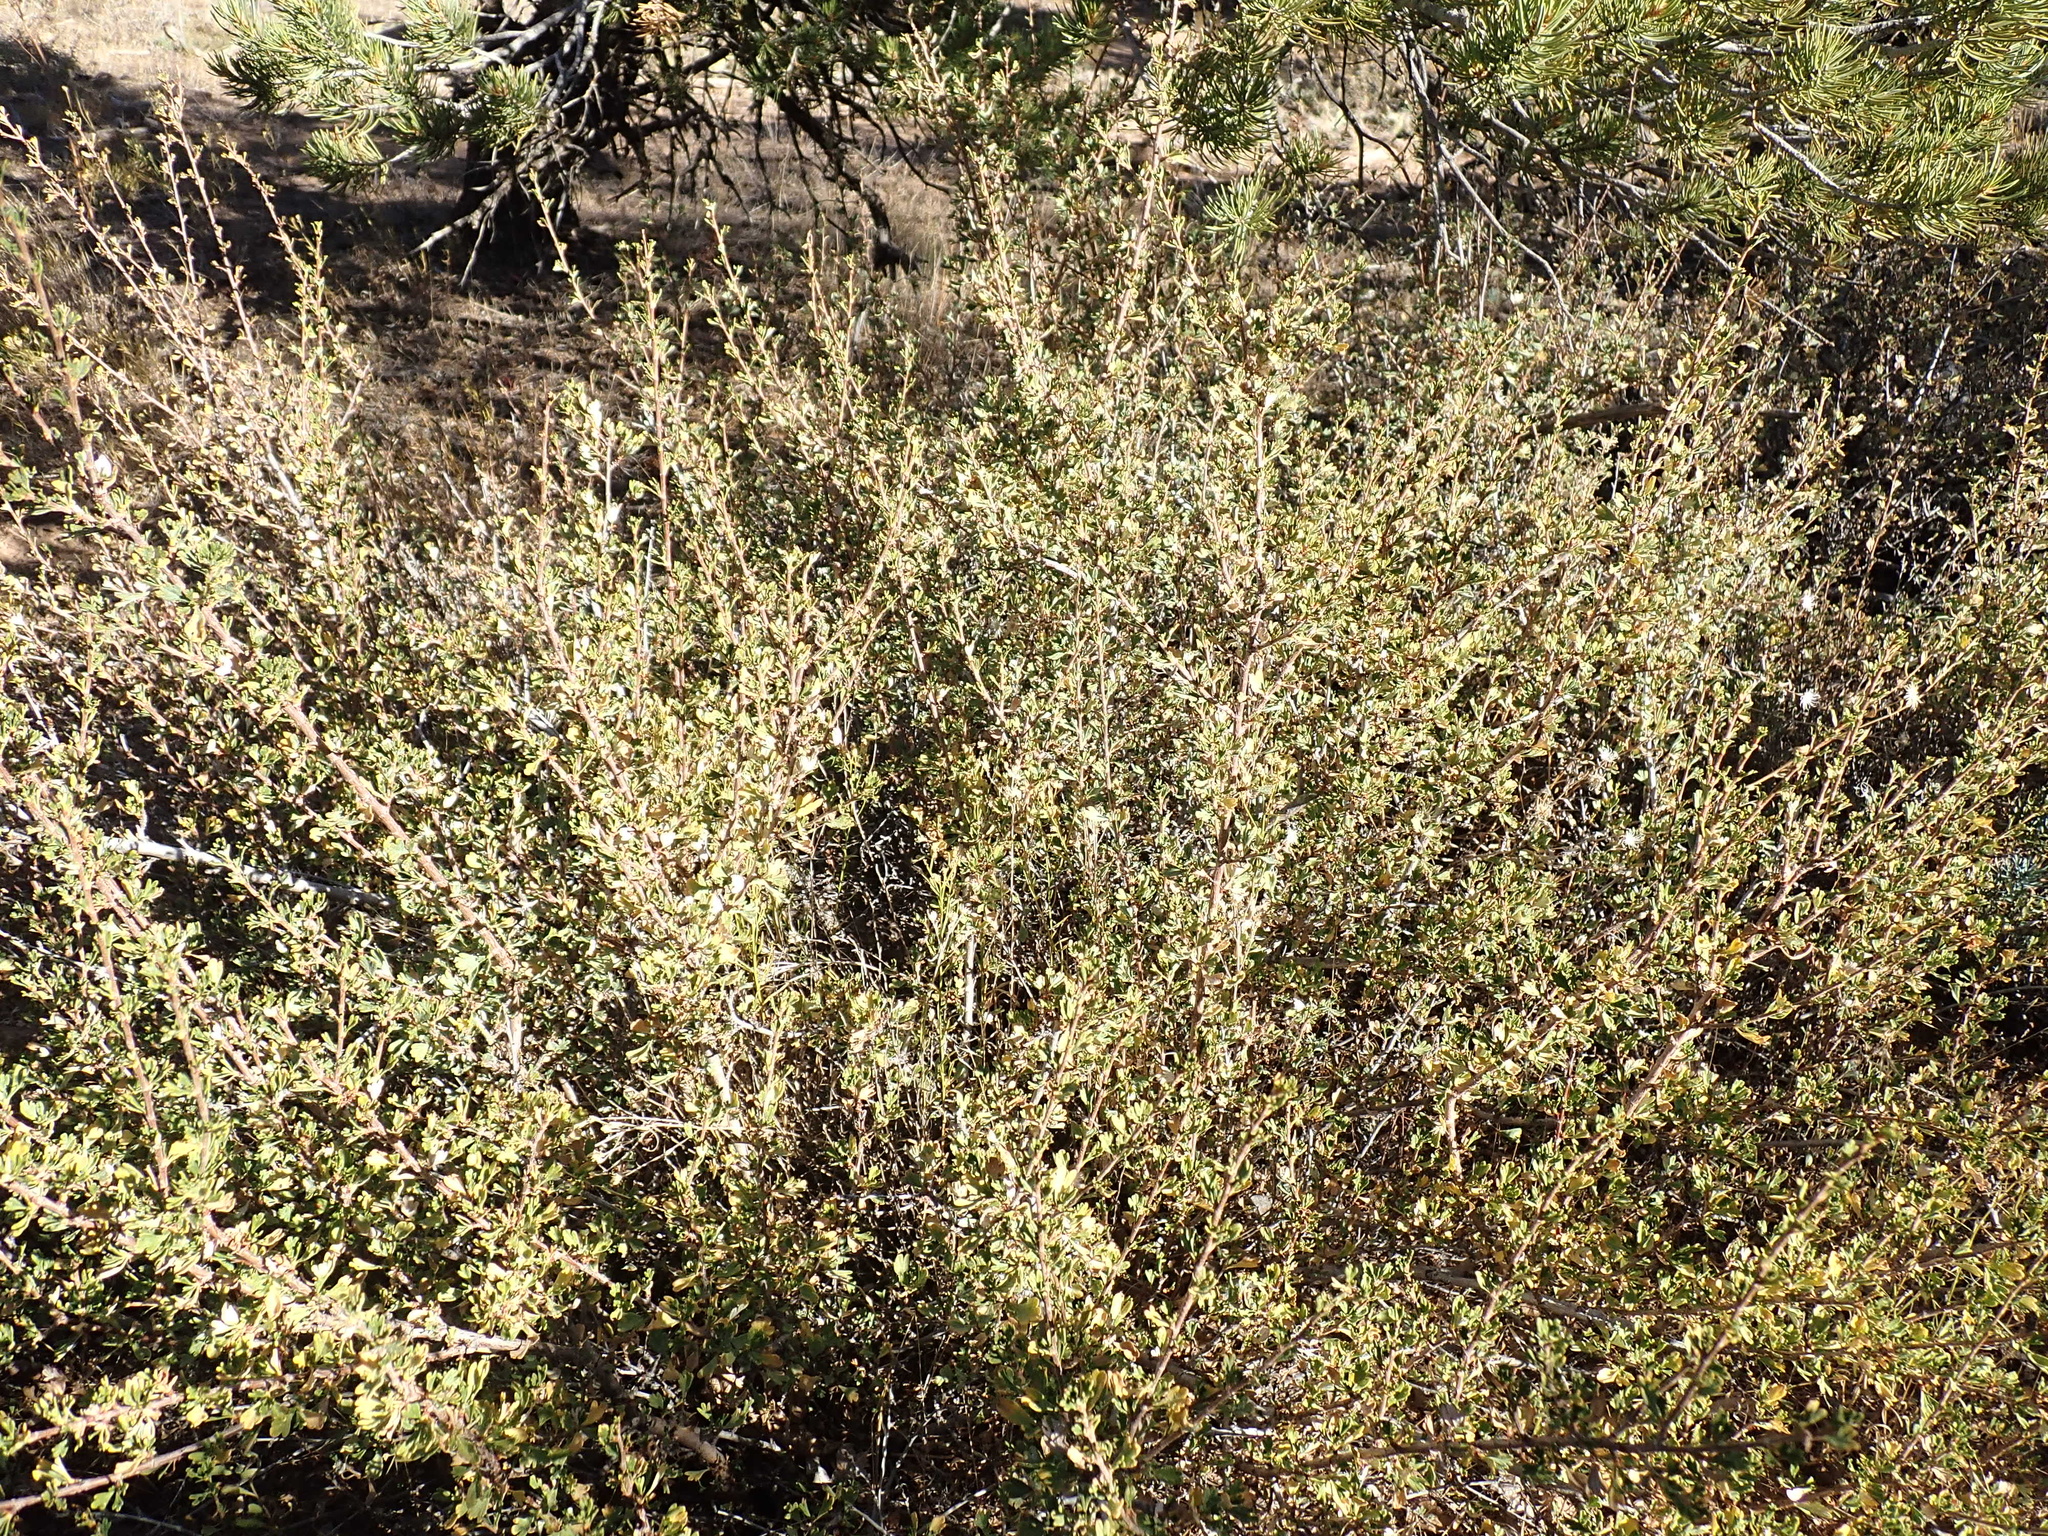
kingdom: Plantae
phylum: Tracheophyta
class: Magnoliopsida
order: Rosales
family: Rosaceae
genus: Purshia
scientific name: Purshia tridentata
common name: Antelope bitterbrush
